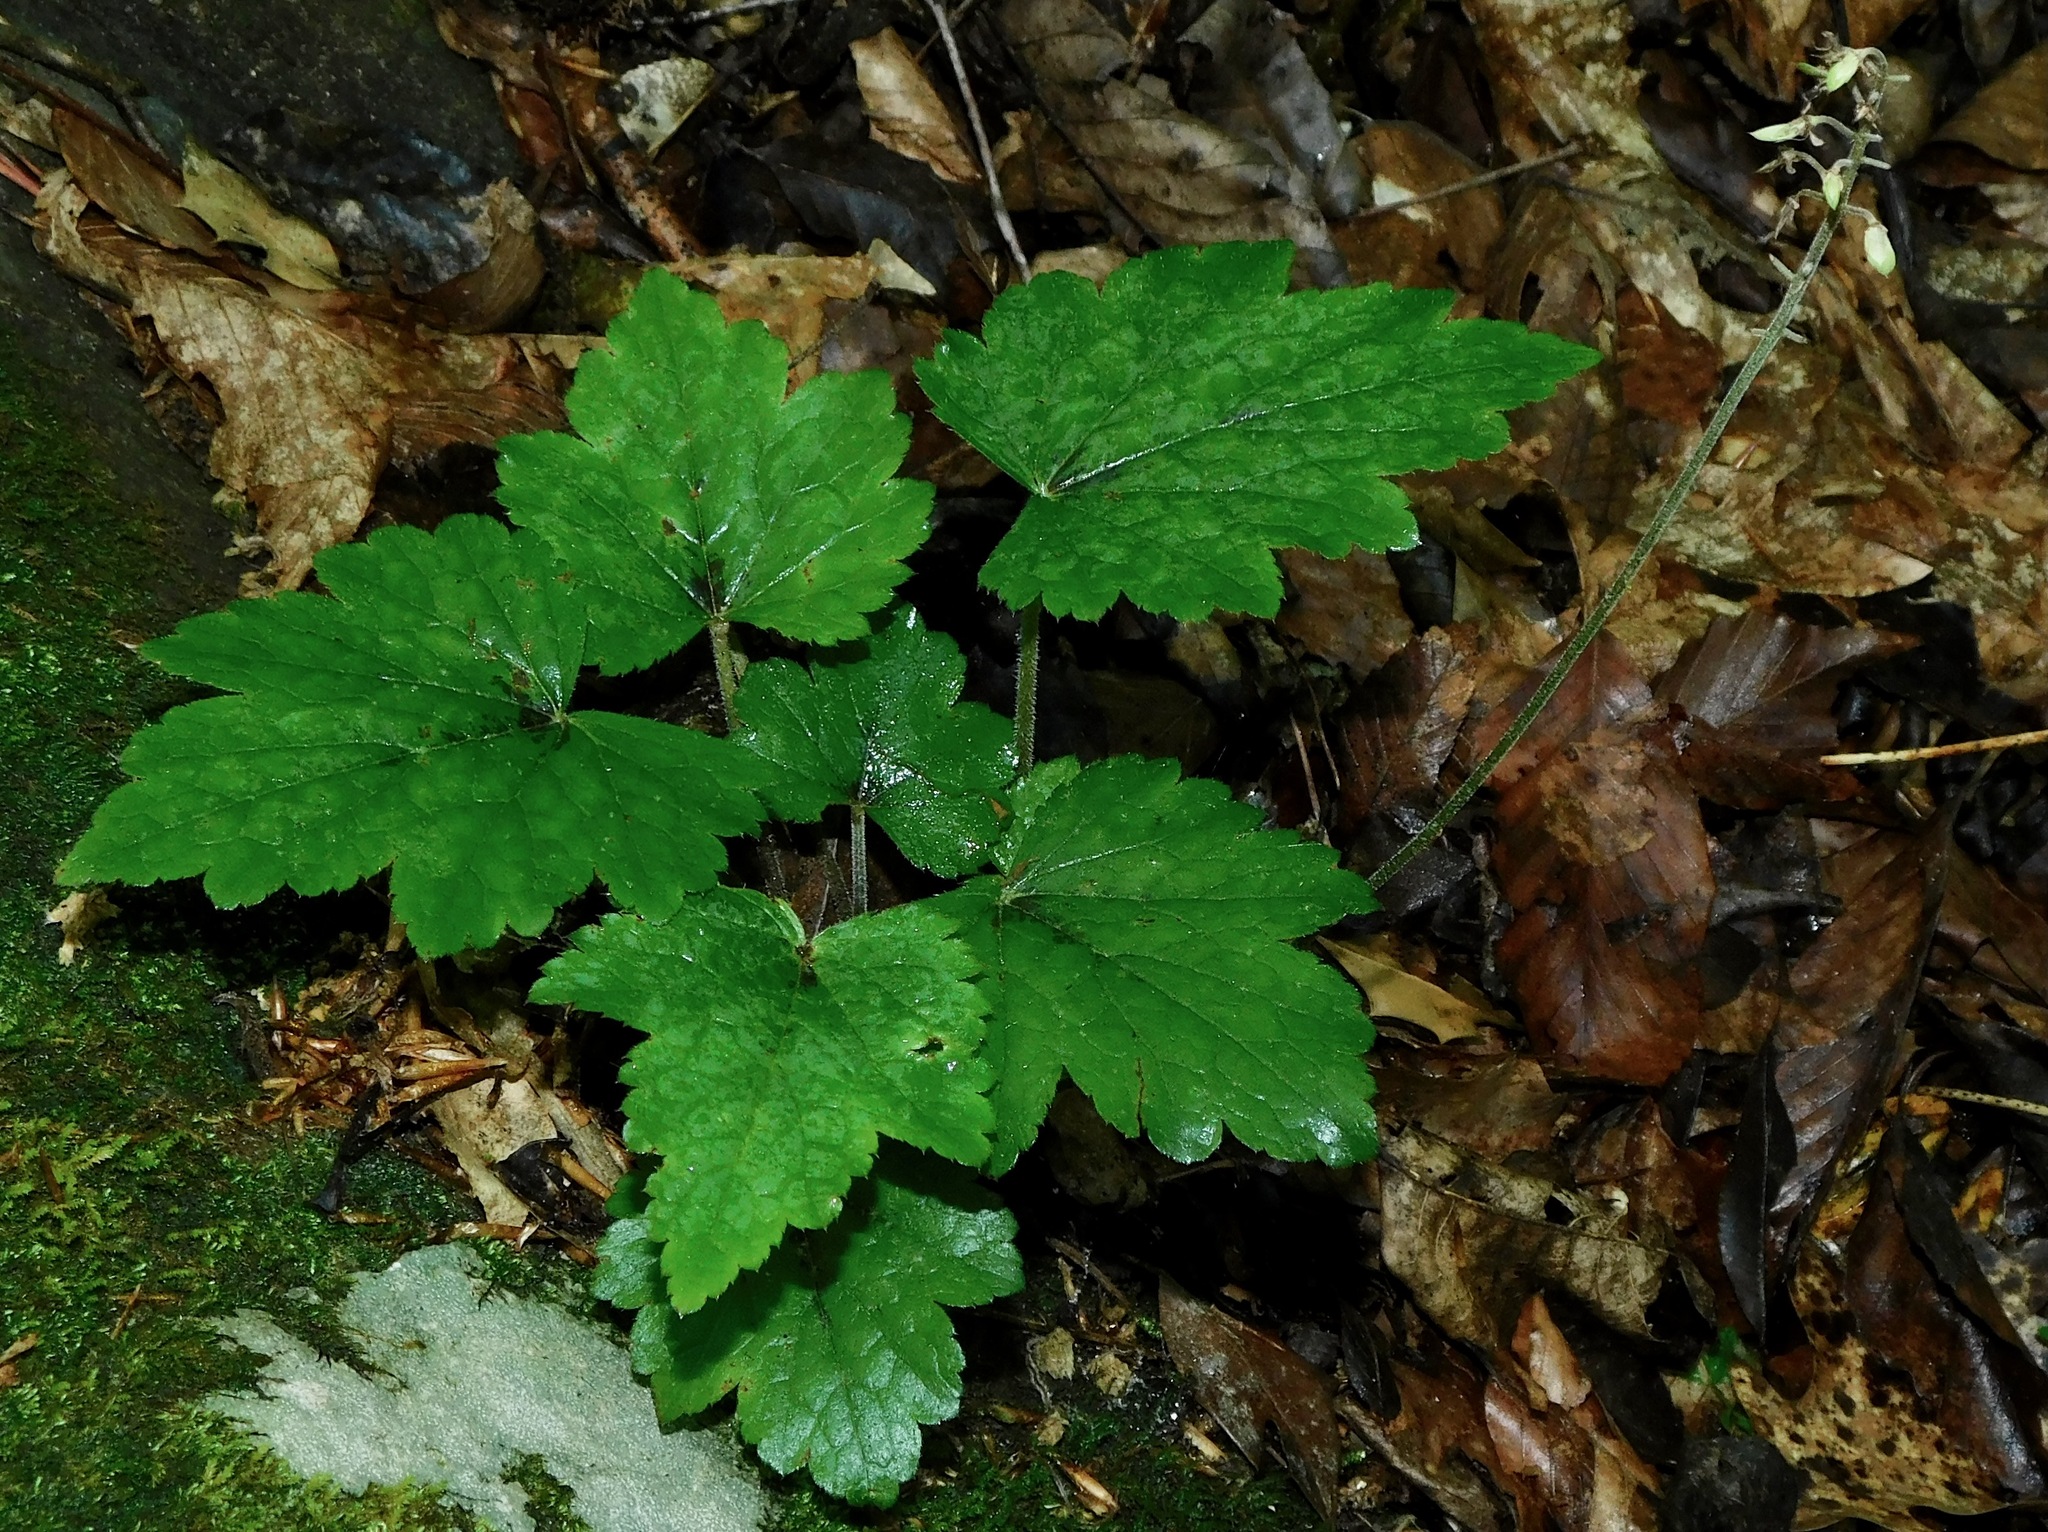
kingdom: Plantae
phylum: Tracheophyta
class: Magnoliopsida
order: Saxifragales
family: Saxifragaceae
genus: Tiarella
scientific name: Tiarella cordifolia
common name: Foamflower
